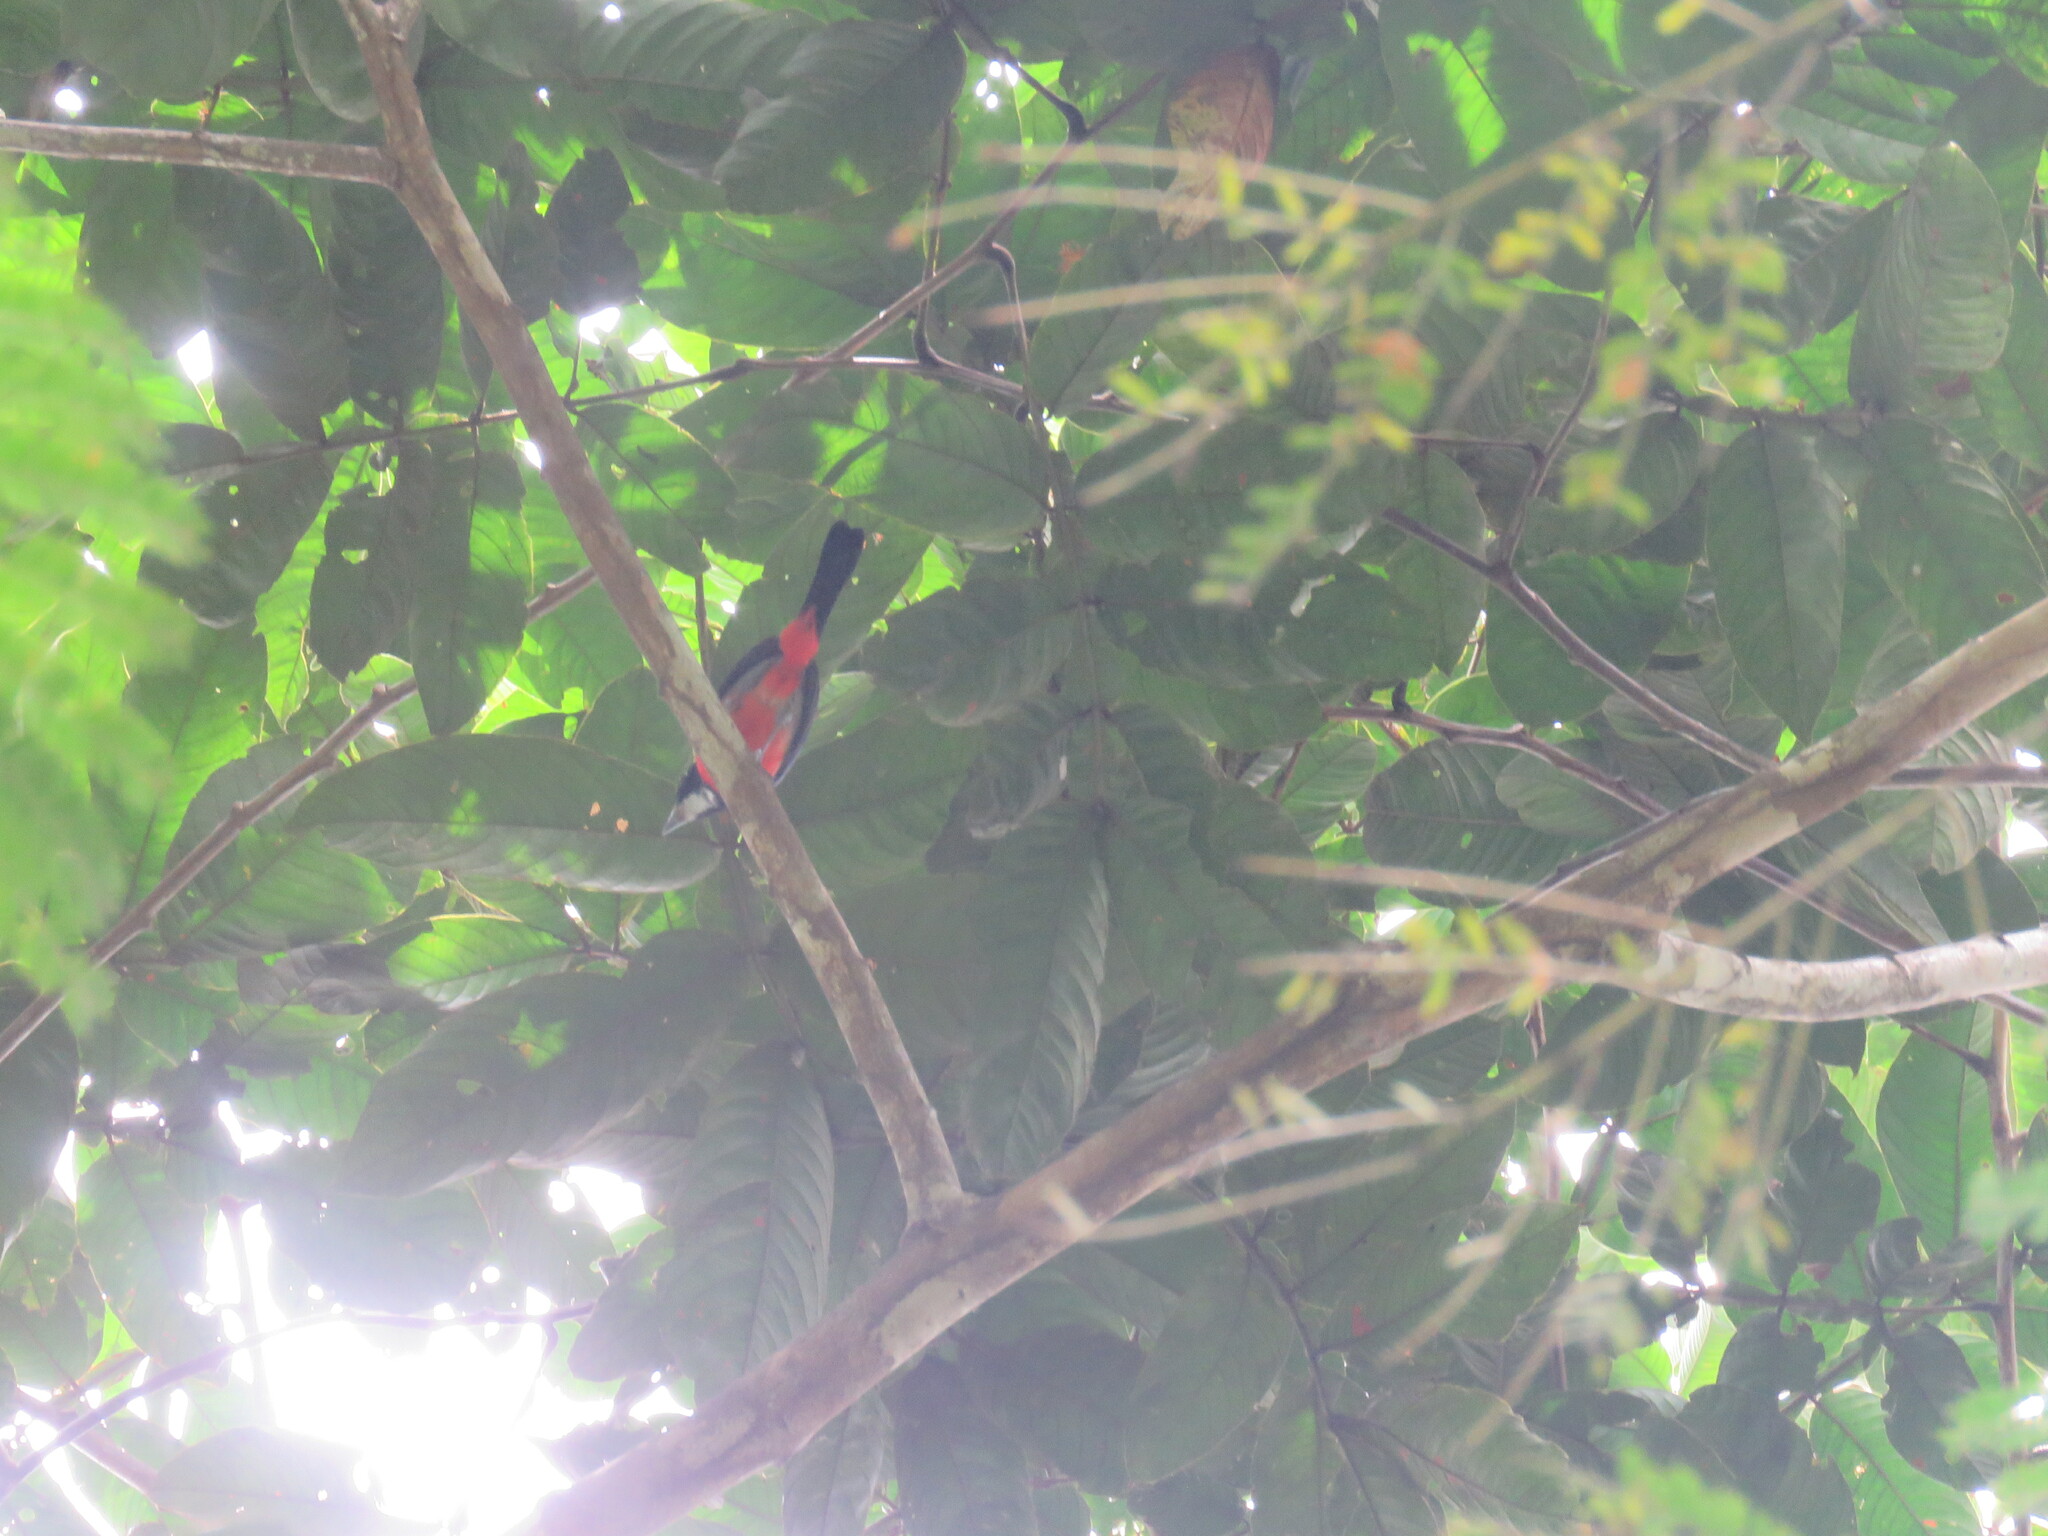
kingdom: Animalia
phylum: Chordata
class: Aves
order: Passeriformes
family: Cardinalidae
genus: Granatellus
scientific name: Granatellus pelzelni
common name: Rose-breasted chat
